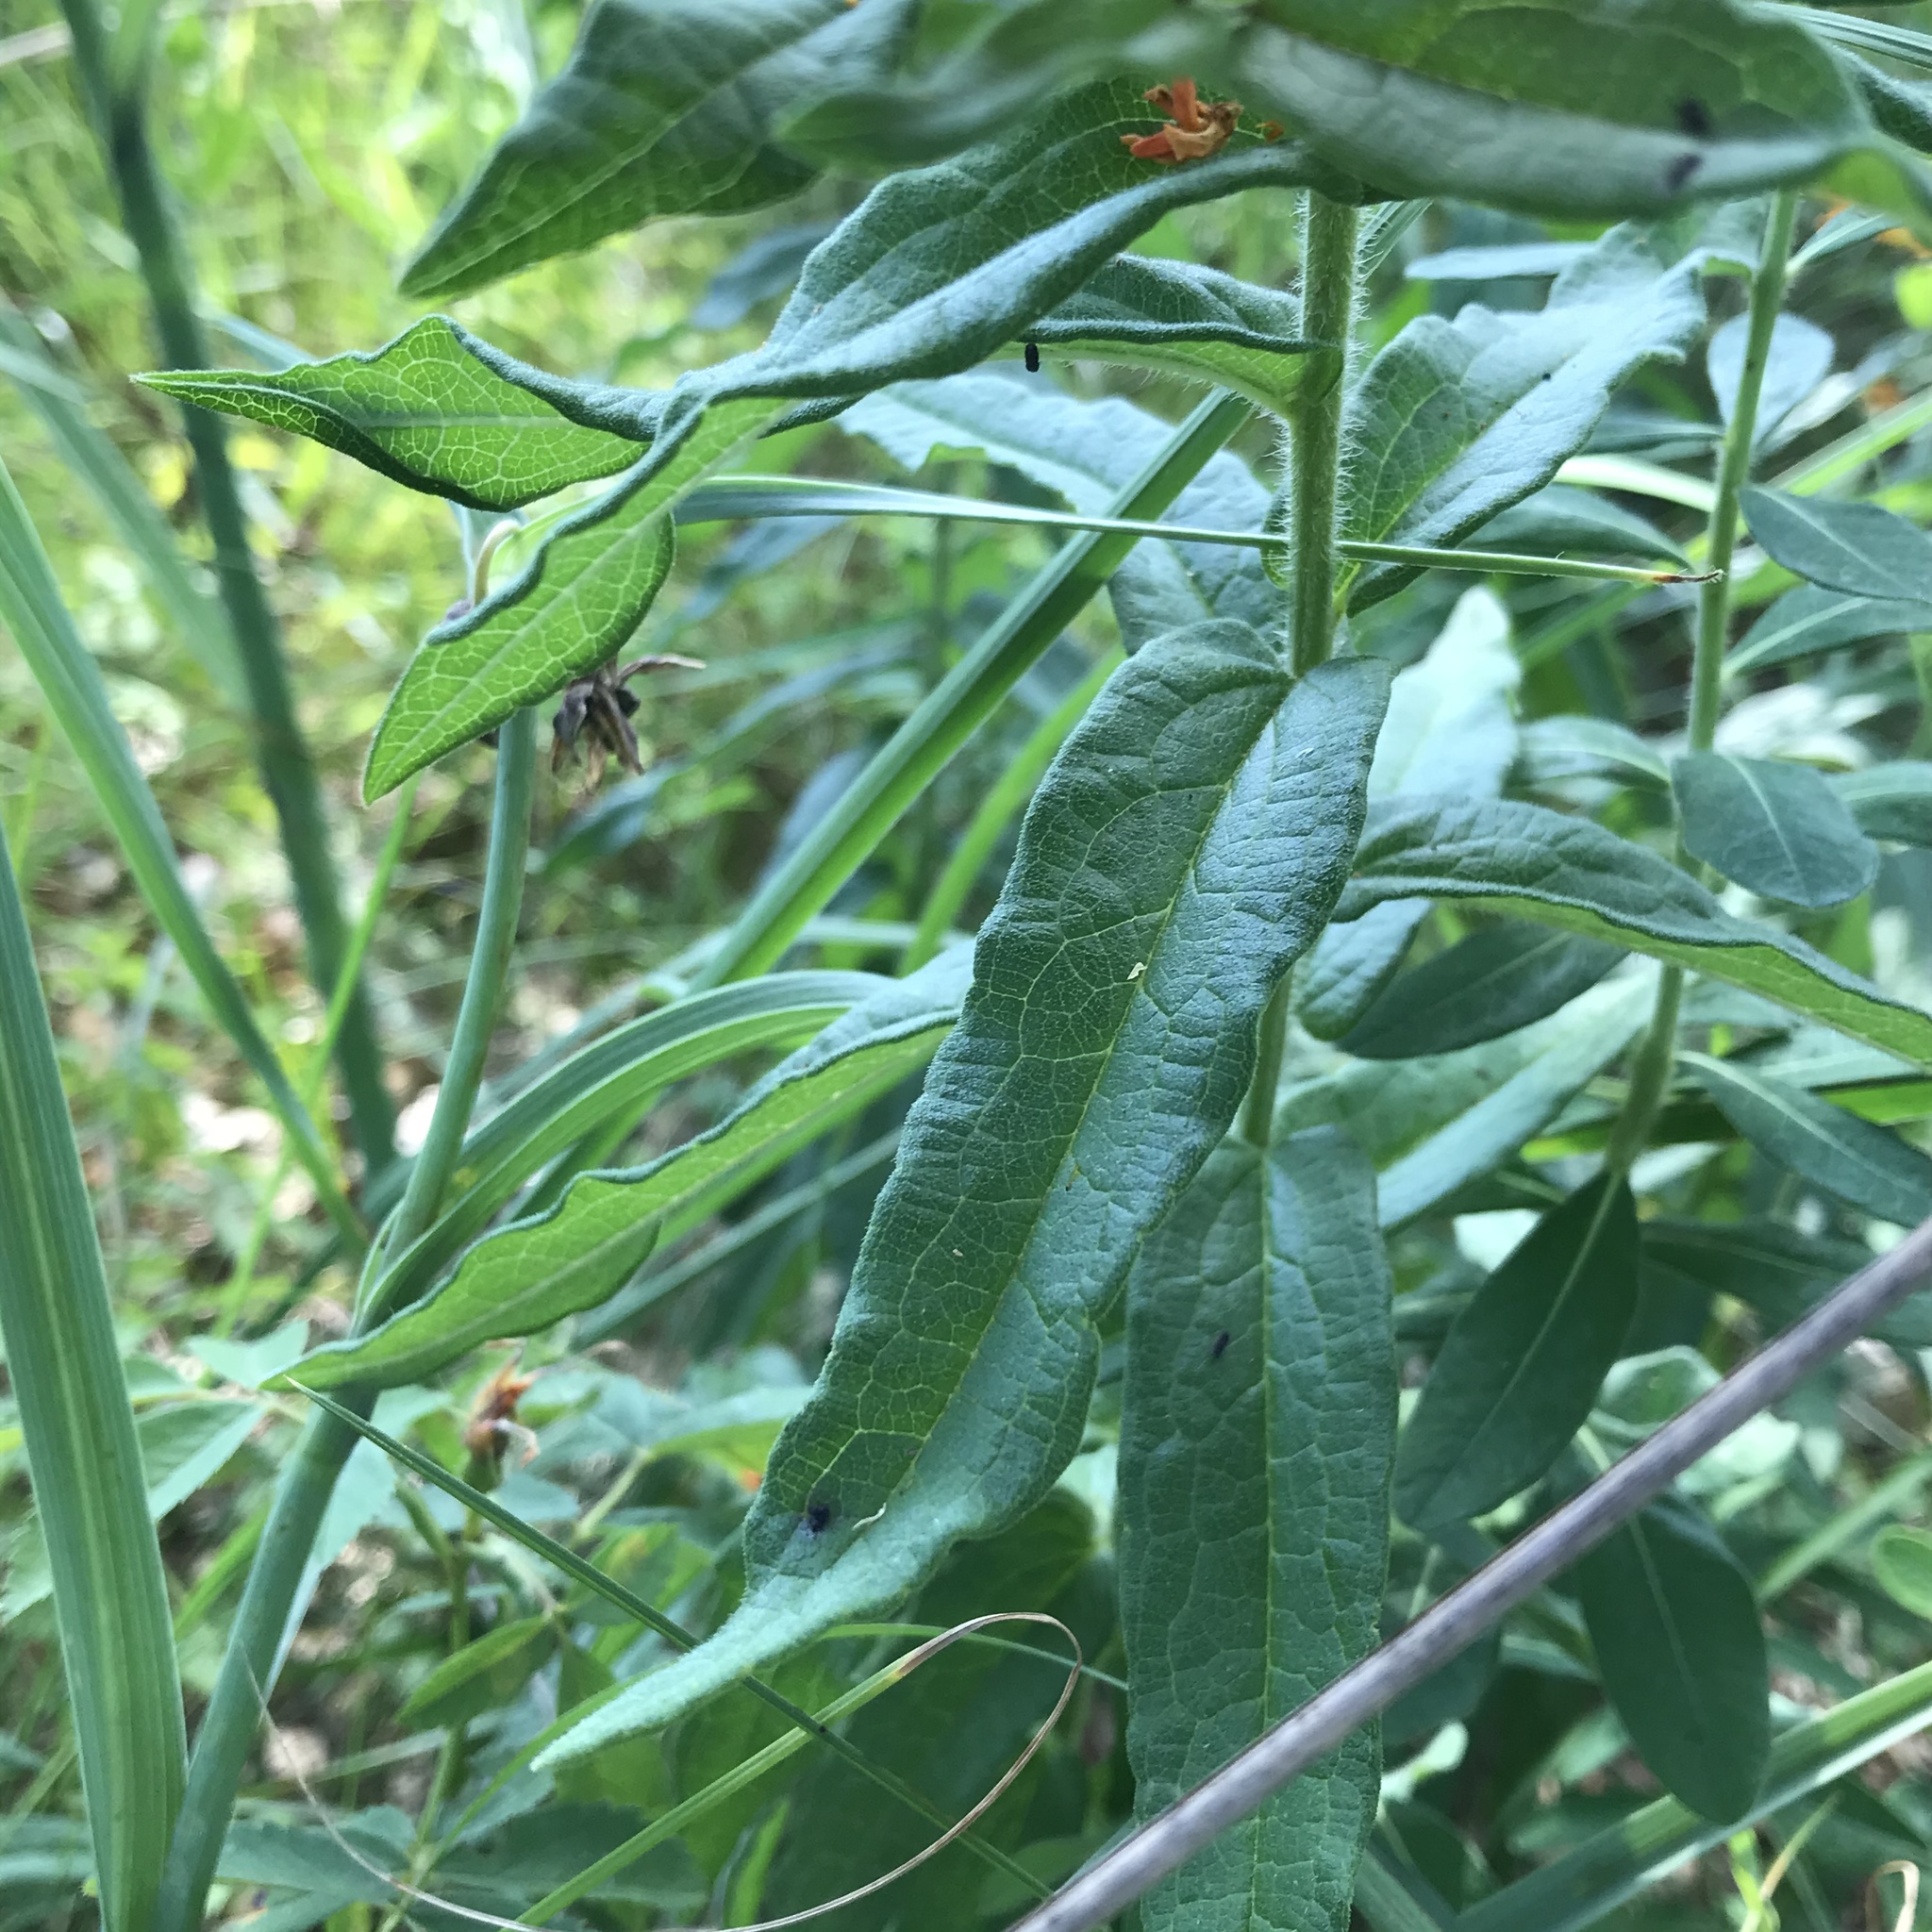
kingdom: Plantae
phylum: Tracheophyta
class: Magnoliopsida
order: Gentianales
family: Apocynaceae
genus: Asclepias
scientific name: Asclepias tuberosa
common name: Butterfly milkweed
